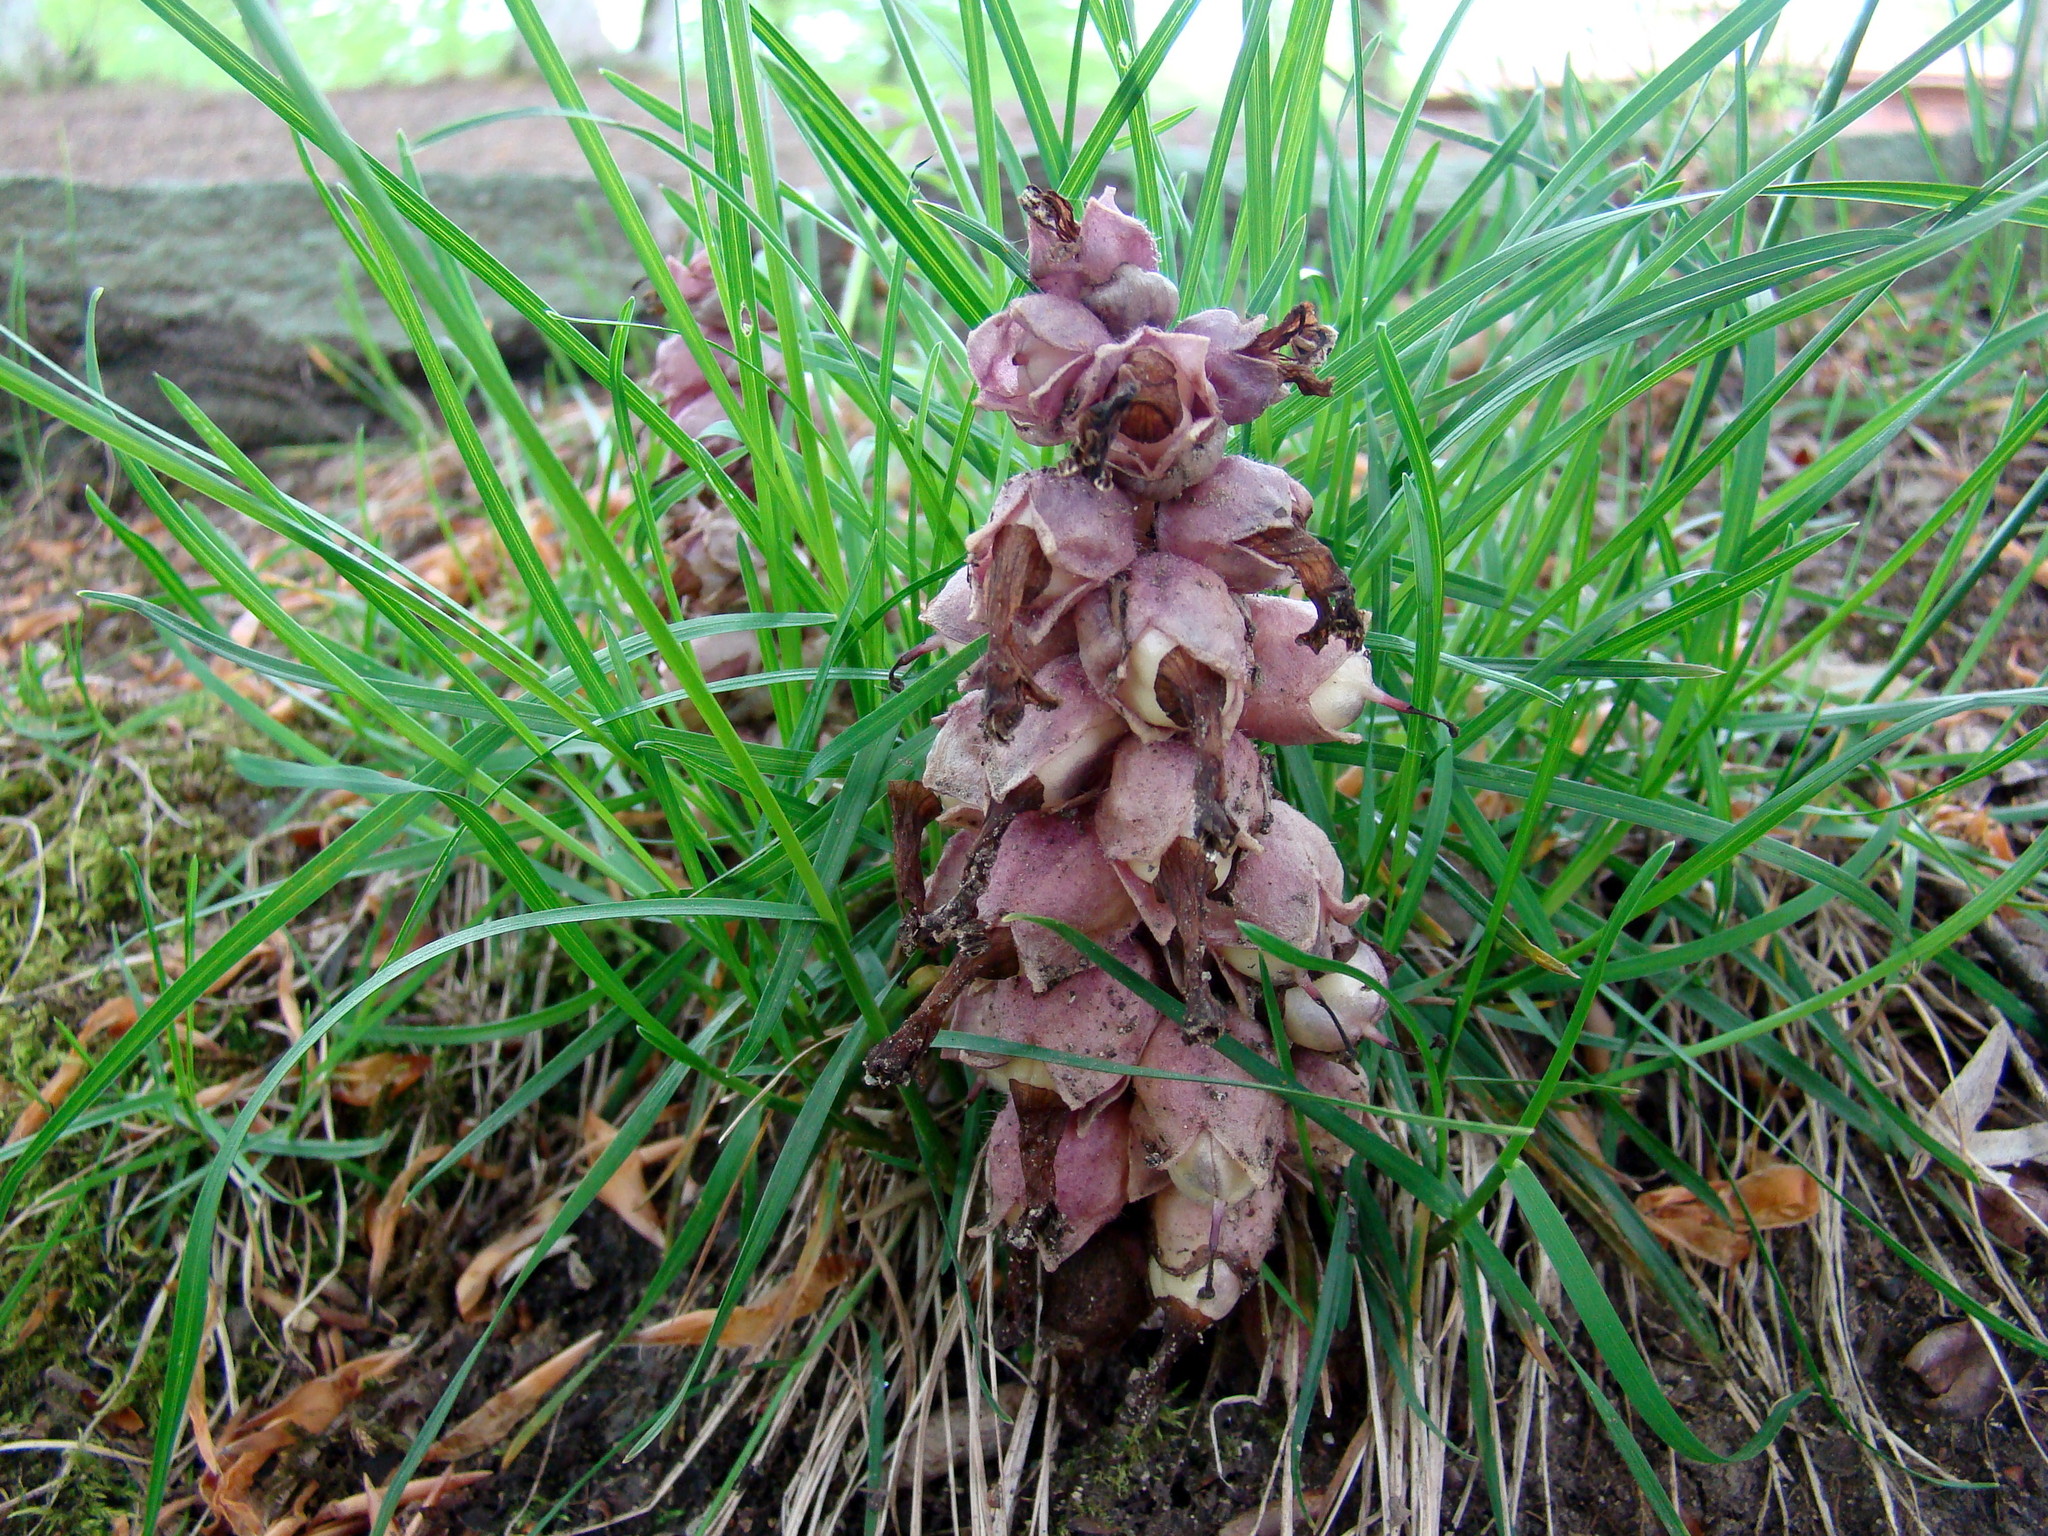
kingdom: Plantae
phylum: Tracheophyta
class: Magnoliopsida
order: Lamiales
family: Orobanchaceae
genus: Lathraea
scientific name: Lathraea squamaria
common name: Toothwort
